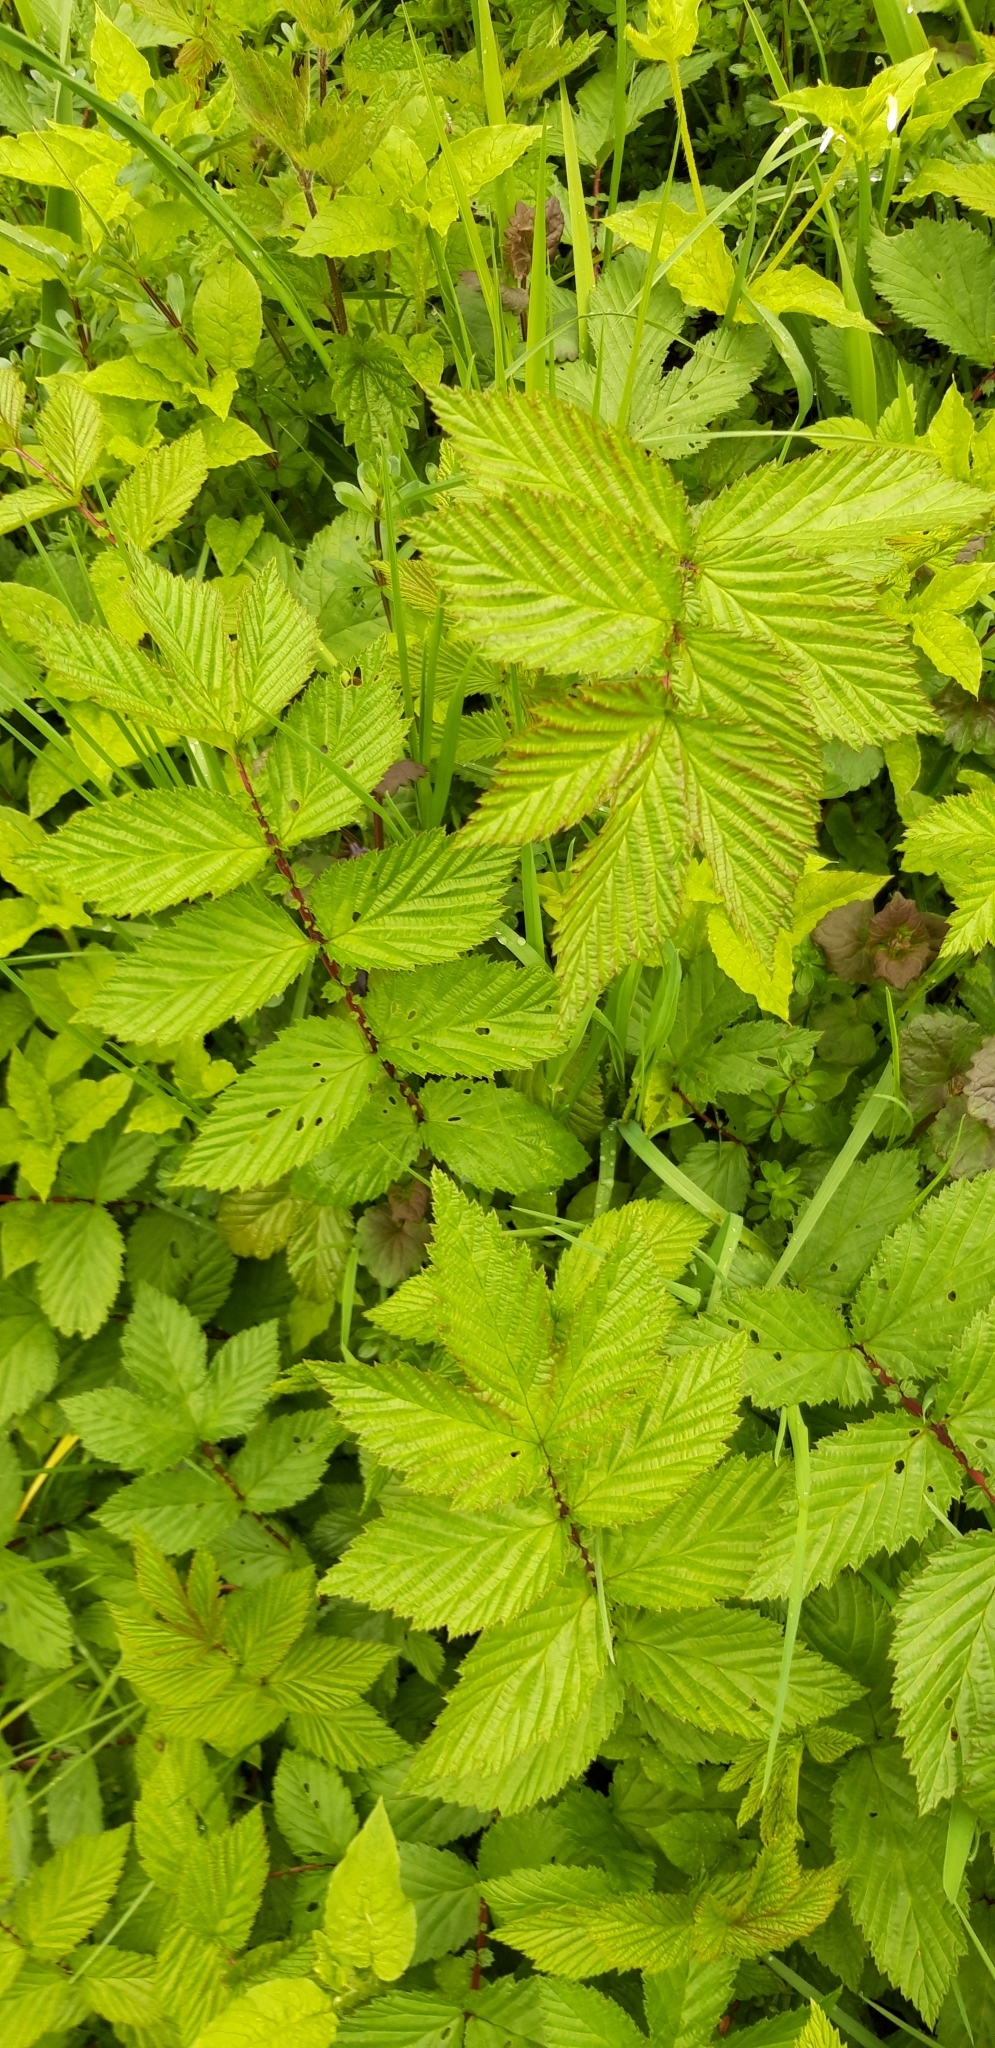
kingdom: Plantae
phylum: Tracheophyta
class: Magnoliopsida
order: Rosales
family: Rosaceae
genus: Filipendula
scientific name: Filipendula ulmaria
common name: Meadowsweet
